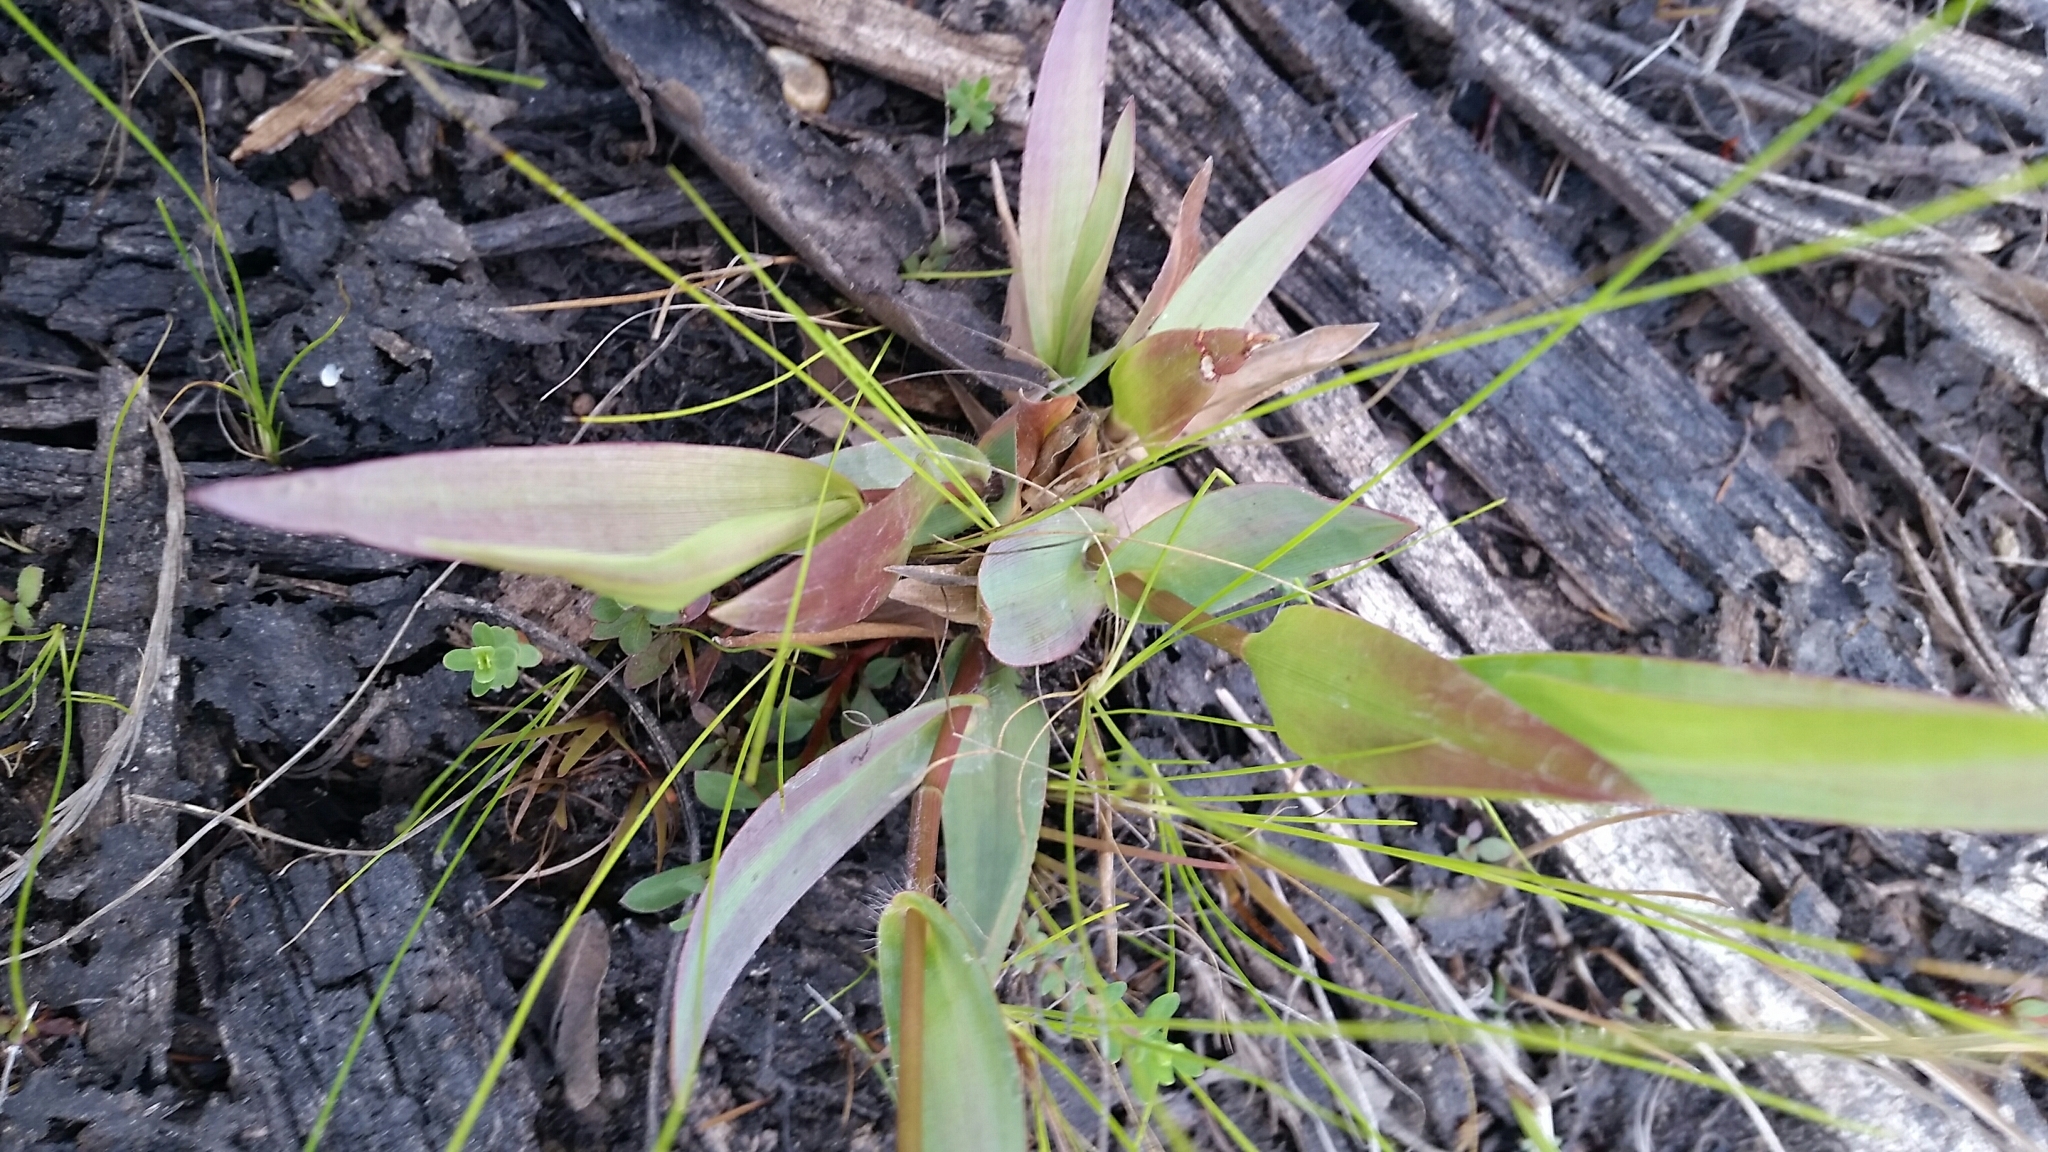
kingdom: Plantae
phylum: Tracheophyta
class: Liliopsida
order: Poales
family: Poaceae
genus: Dichanthelium
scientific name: Dichanthelium erectifolium
